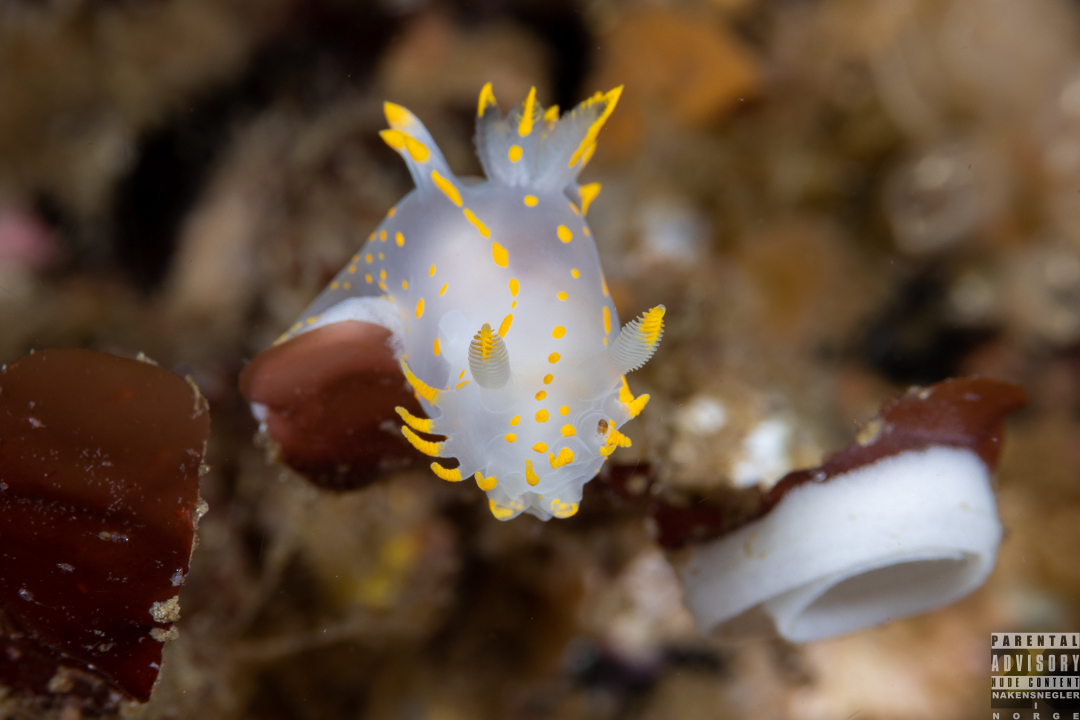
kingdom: Animalia
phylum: Mollusca
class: Gastropoda
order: Nudibranchia
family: Polyceridae
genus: Polycera
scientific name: Polycera faeroensis
